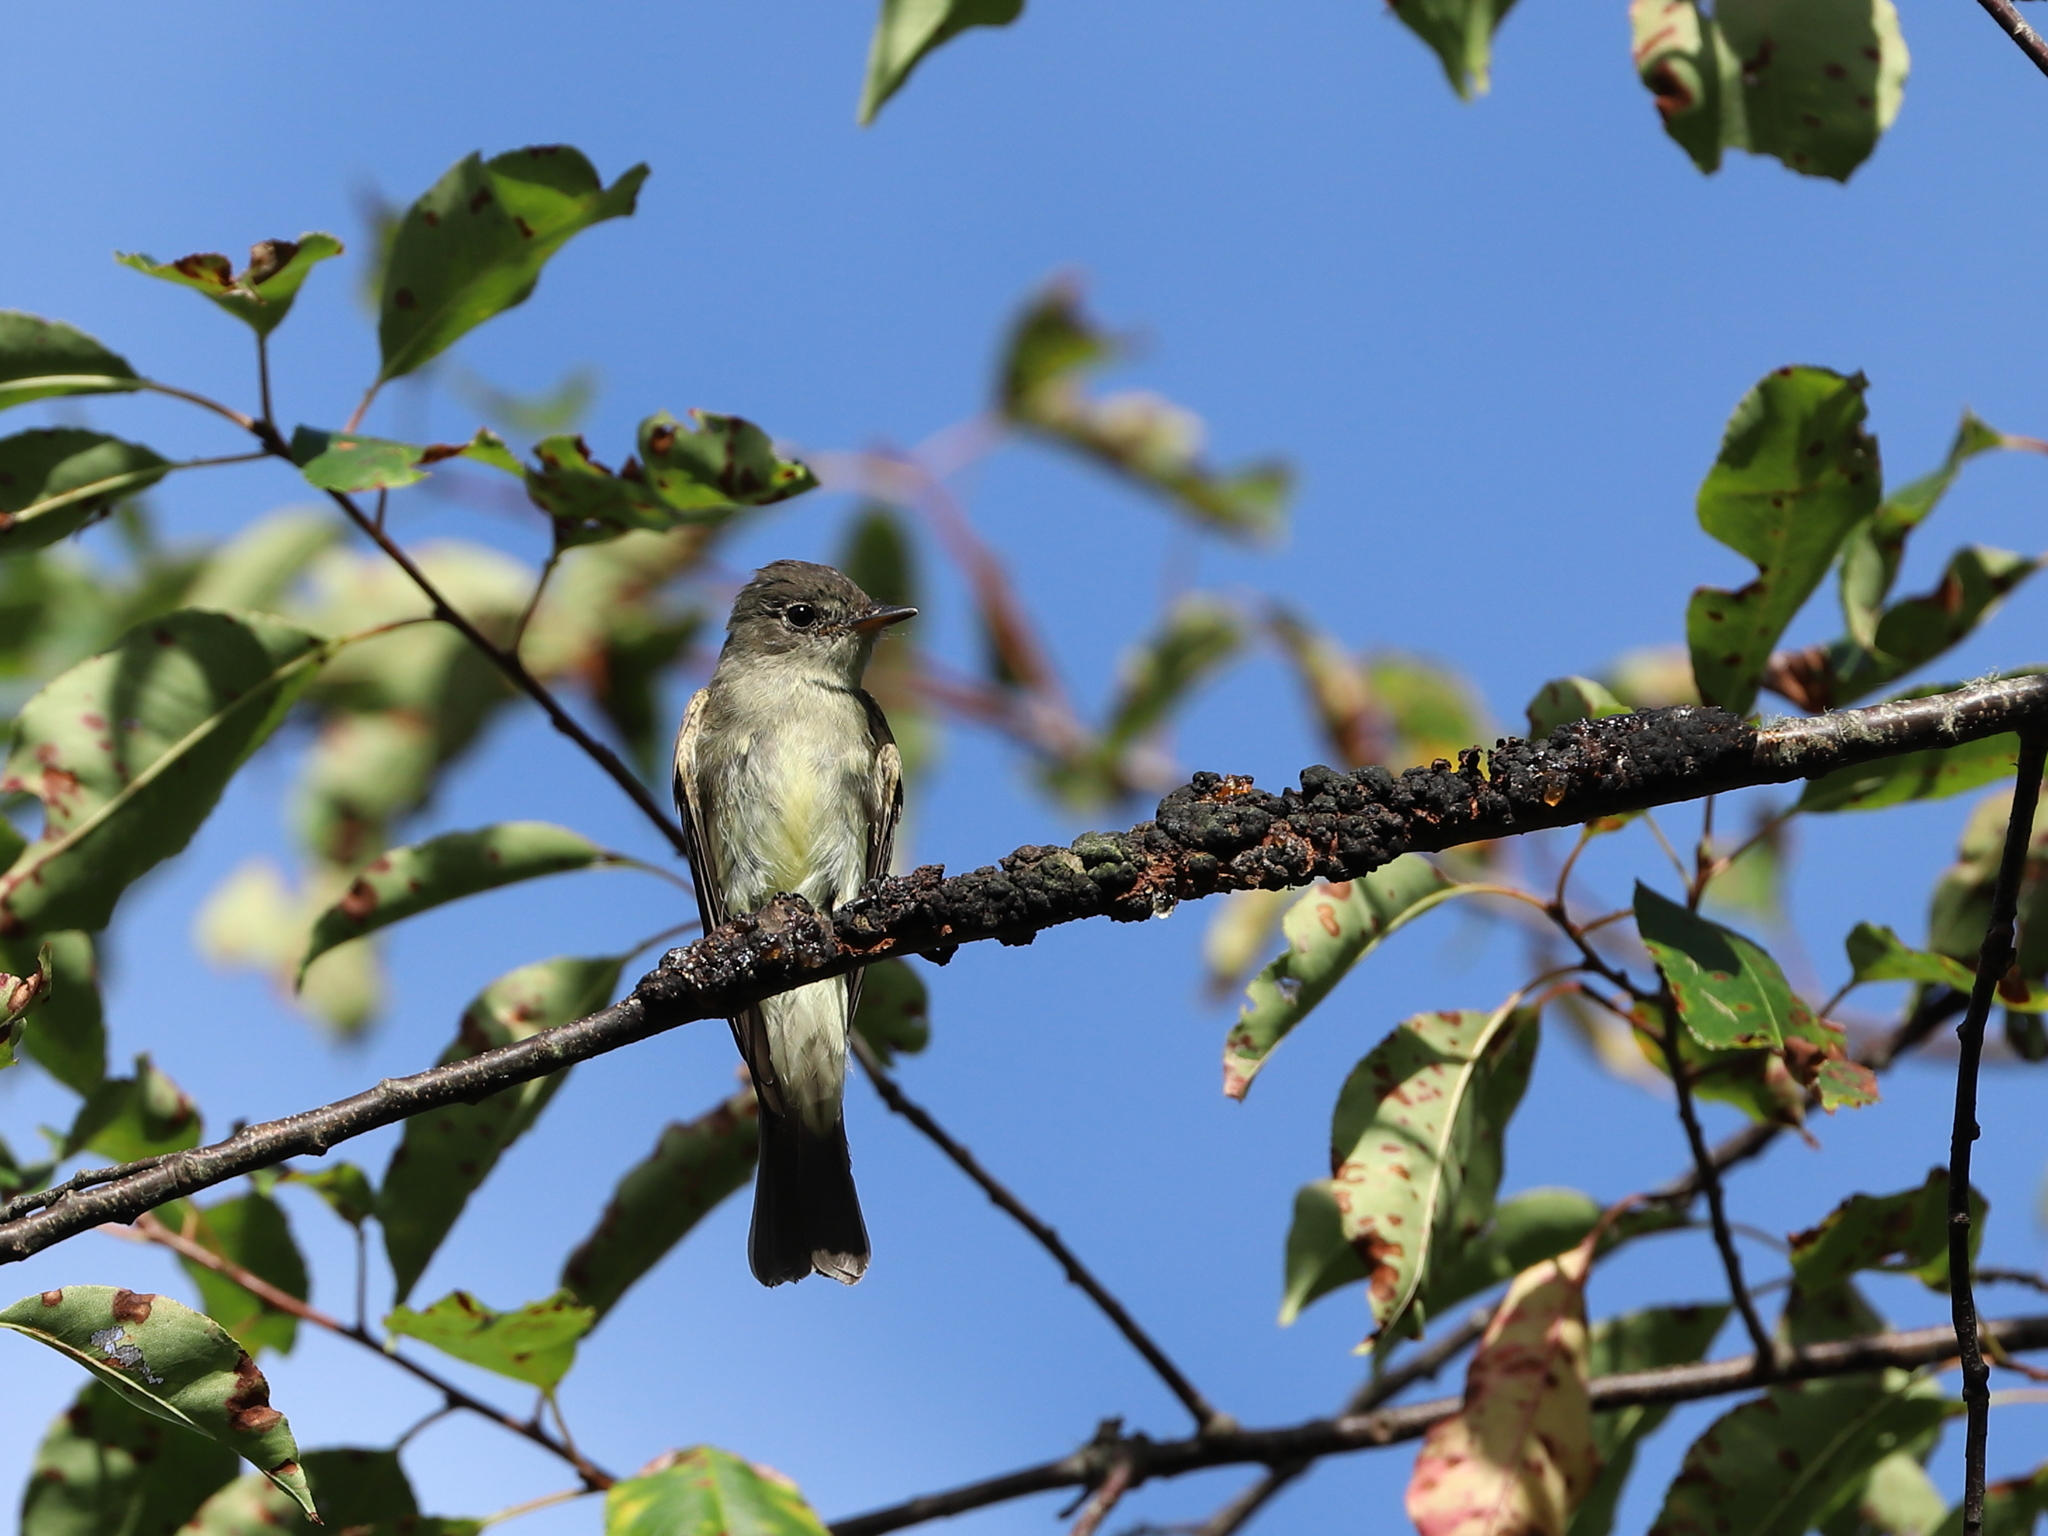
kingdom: Animalia
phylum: Chordata
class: Aves
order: Passeriformes
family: Tyrannidae
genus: Contopus
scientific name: Contopus virens
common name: Eastern wood-pewee
